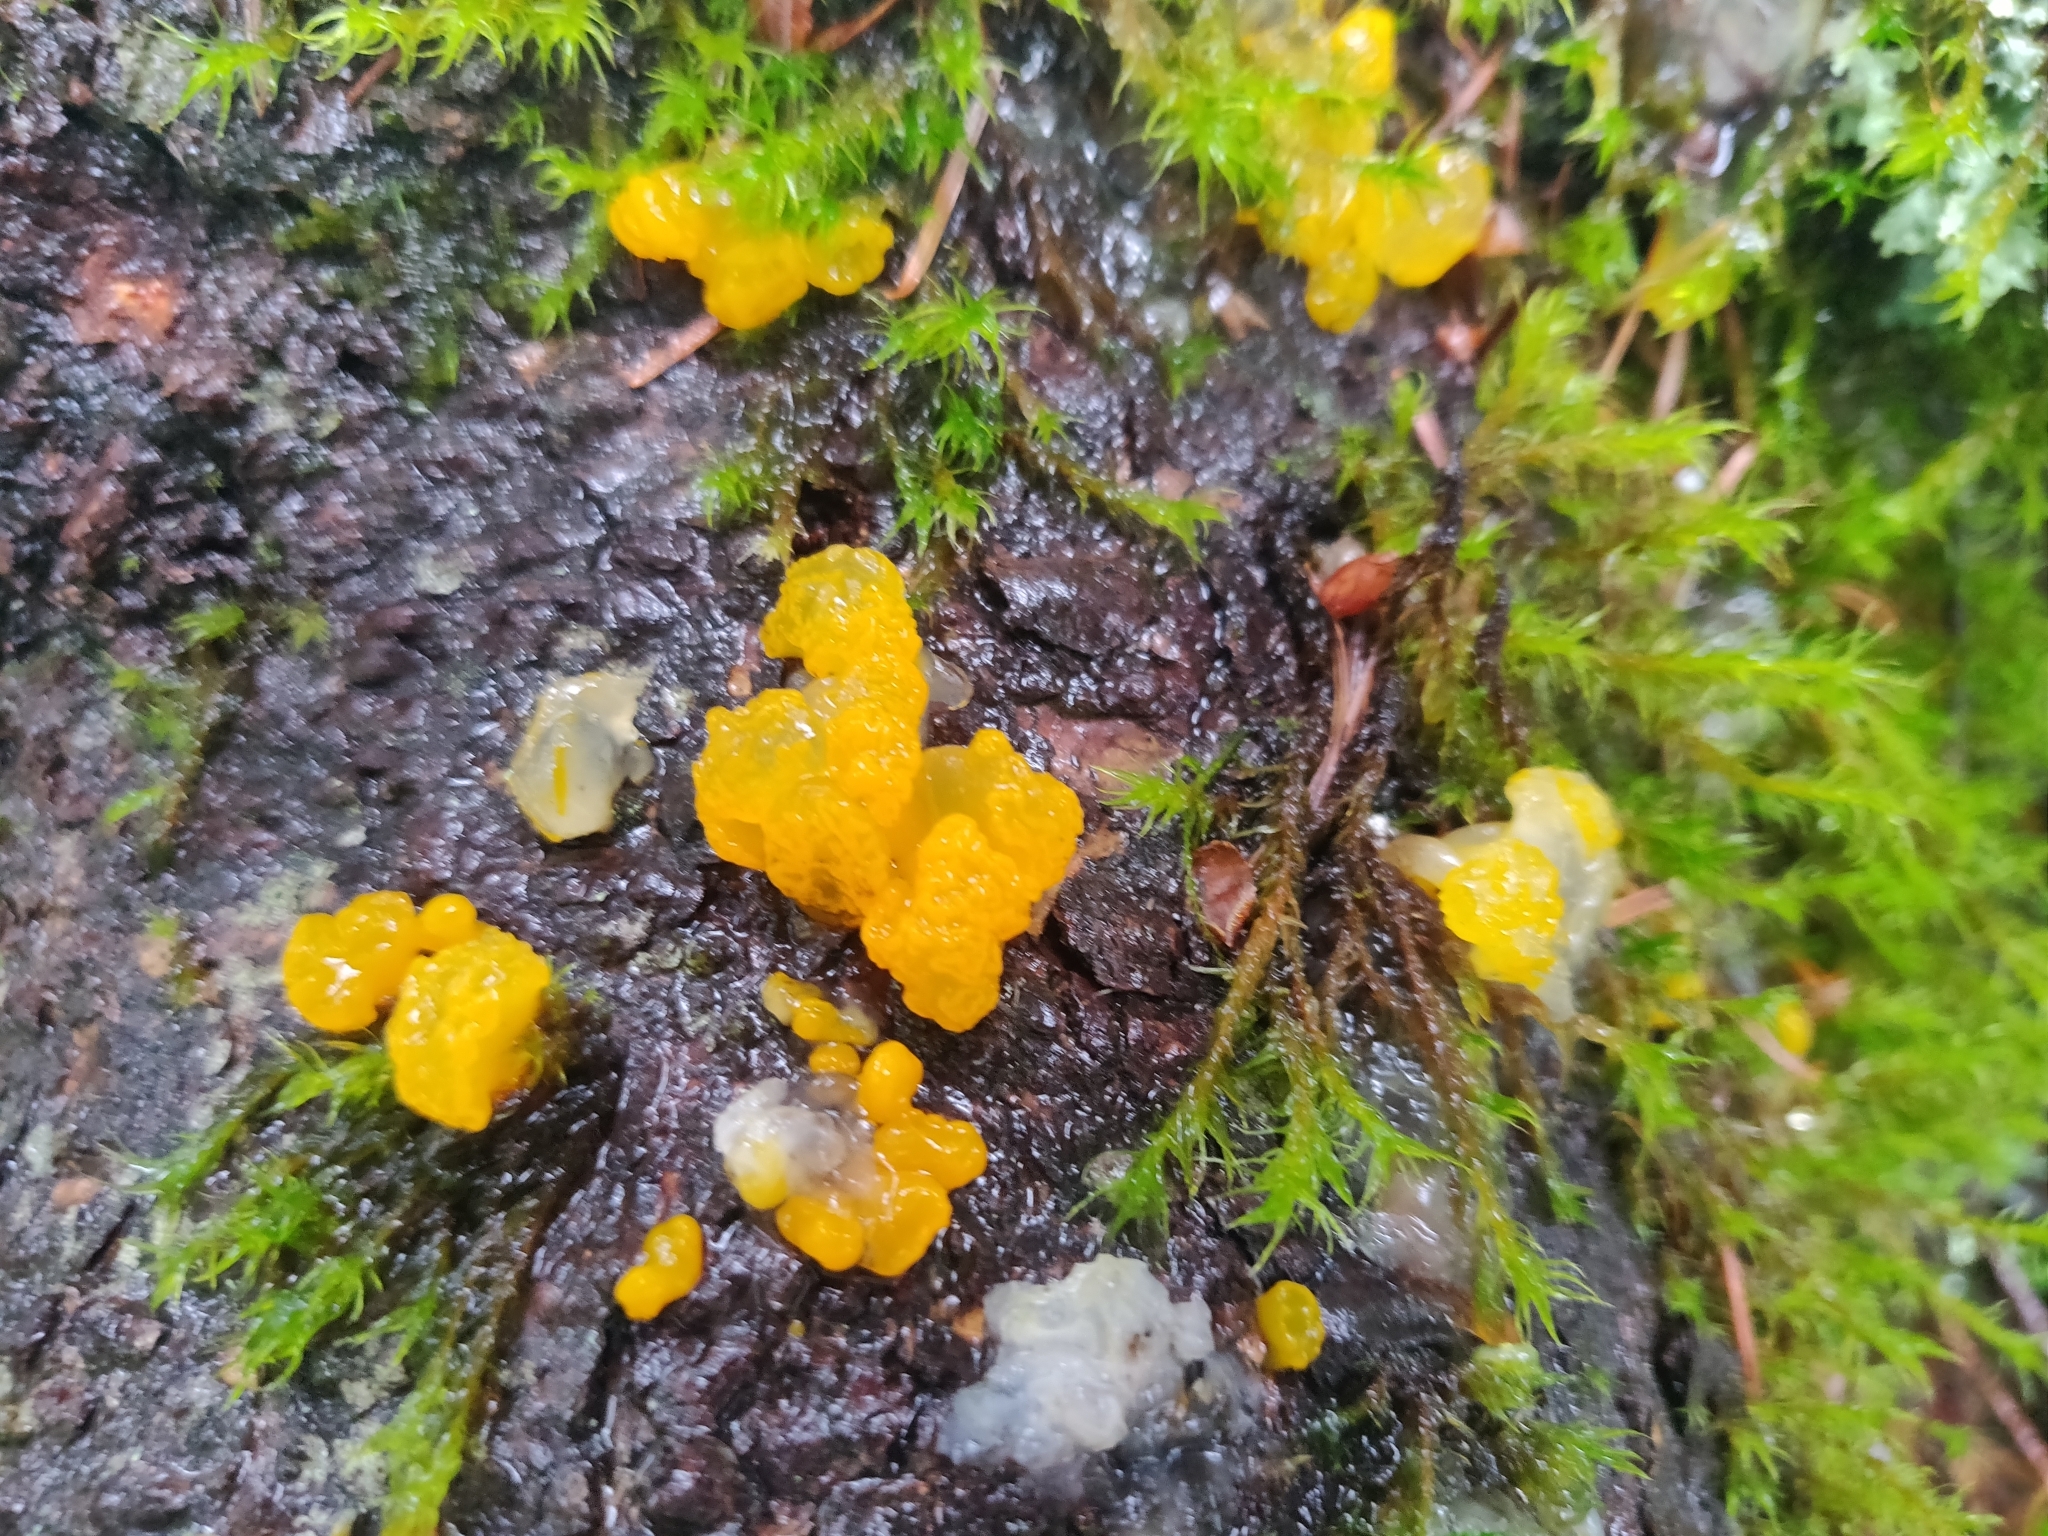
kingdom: Fungi
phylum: Basidiomycota
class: Dacrymycetes
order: Dacrymycetales
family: Dacrymycetaceae
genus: Dacrymyces
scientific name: Dacrymyces chrysospermus
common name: Orange jelly spot
